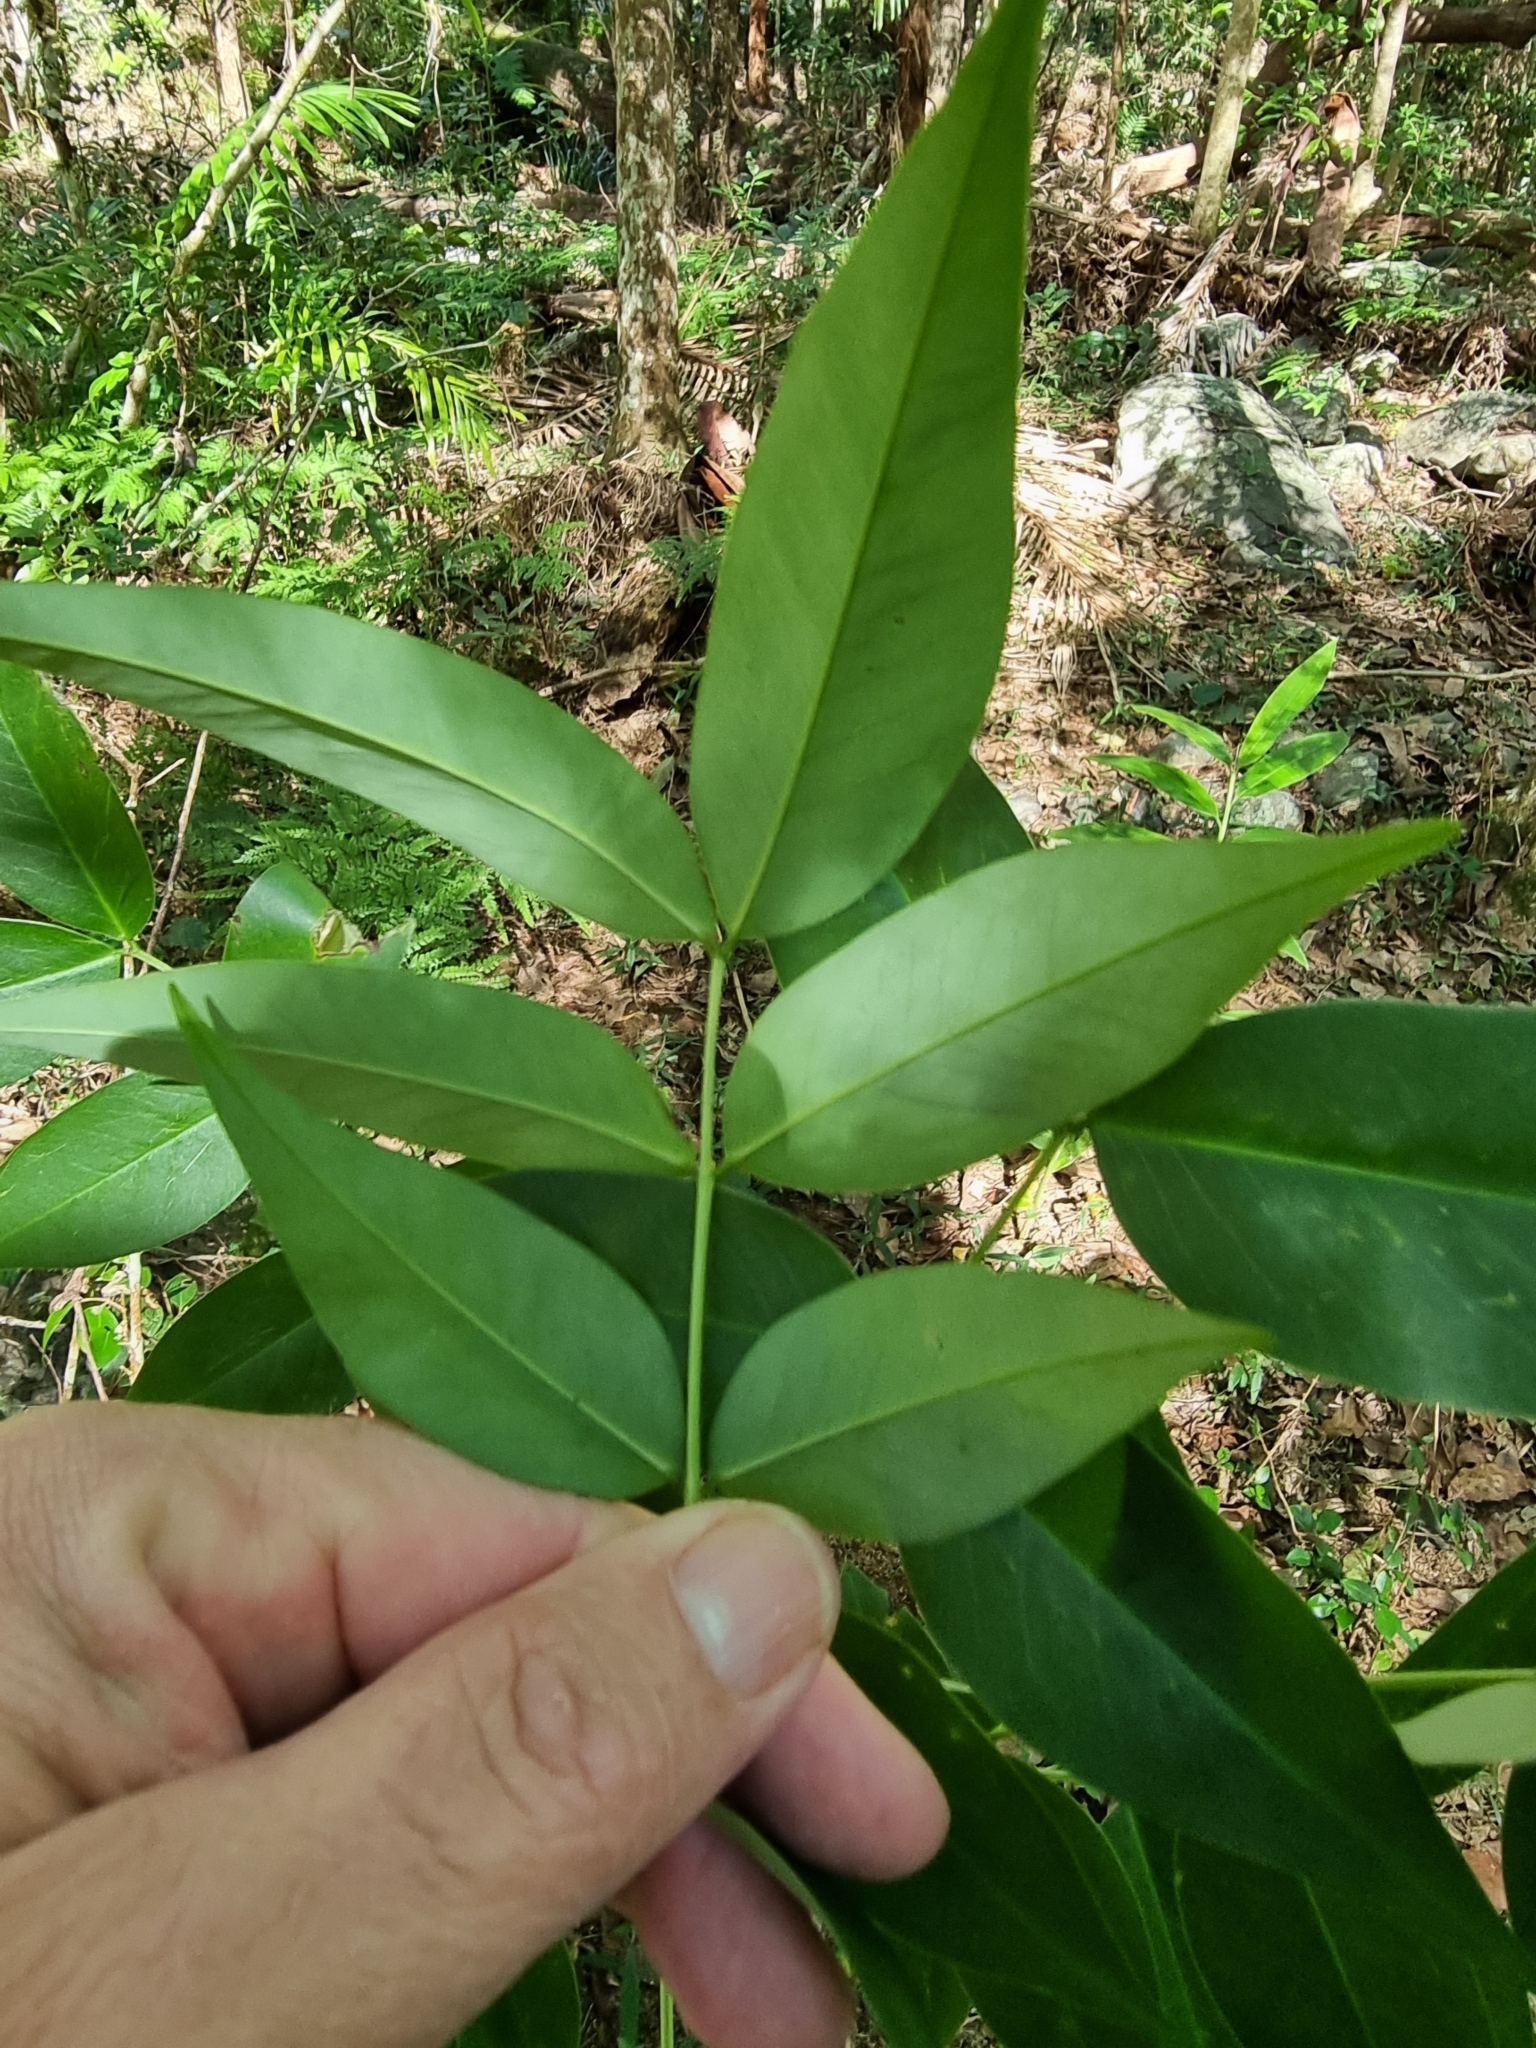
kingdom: Plantae
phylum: Tracheophyta
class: Magnoliopsida
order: Fabales
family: Fabaceae
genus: Senna
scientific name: Senna septemtrionalis
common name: Arsenic bush
